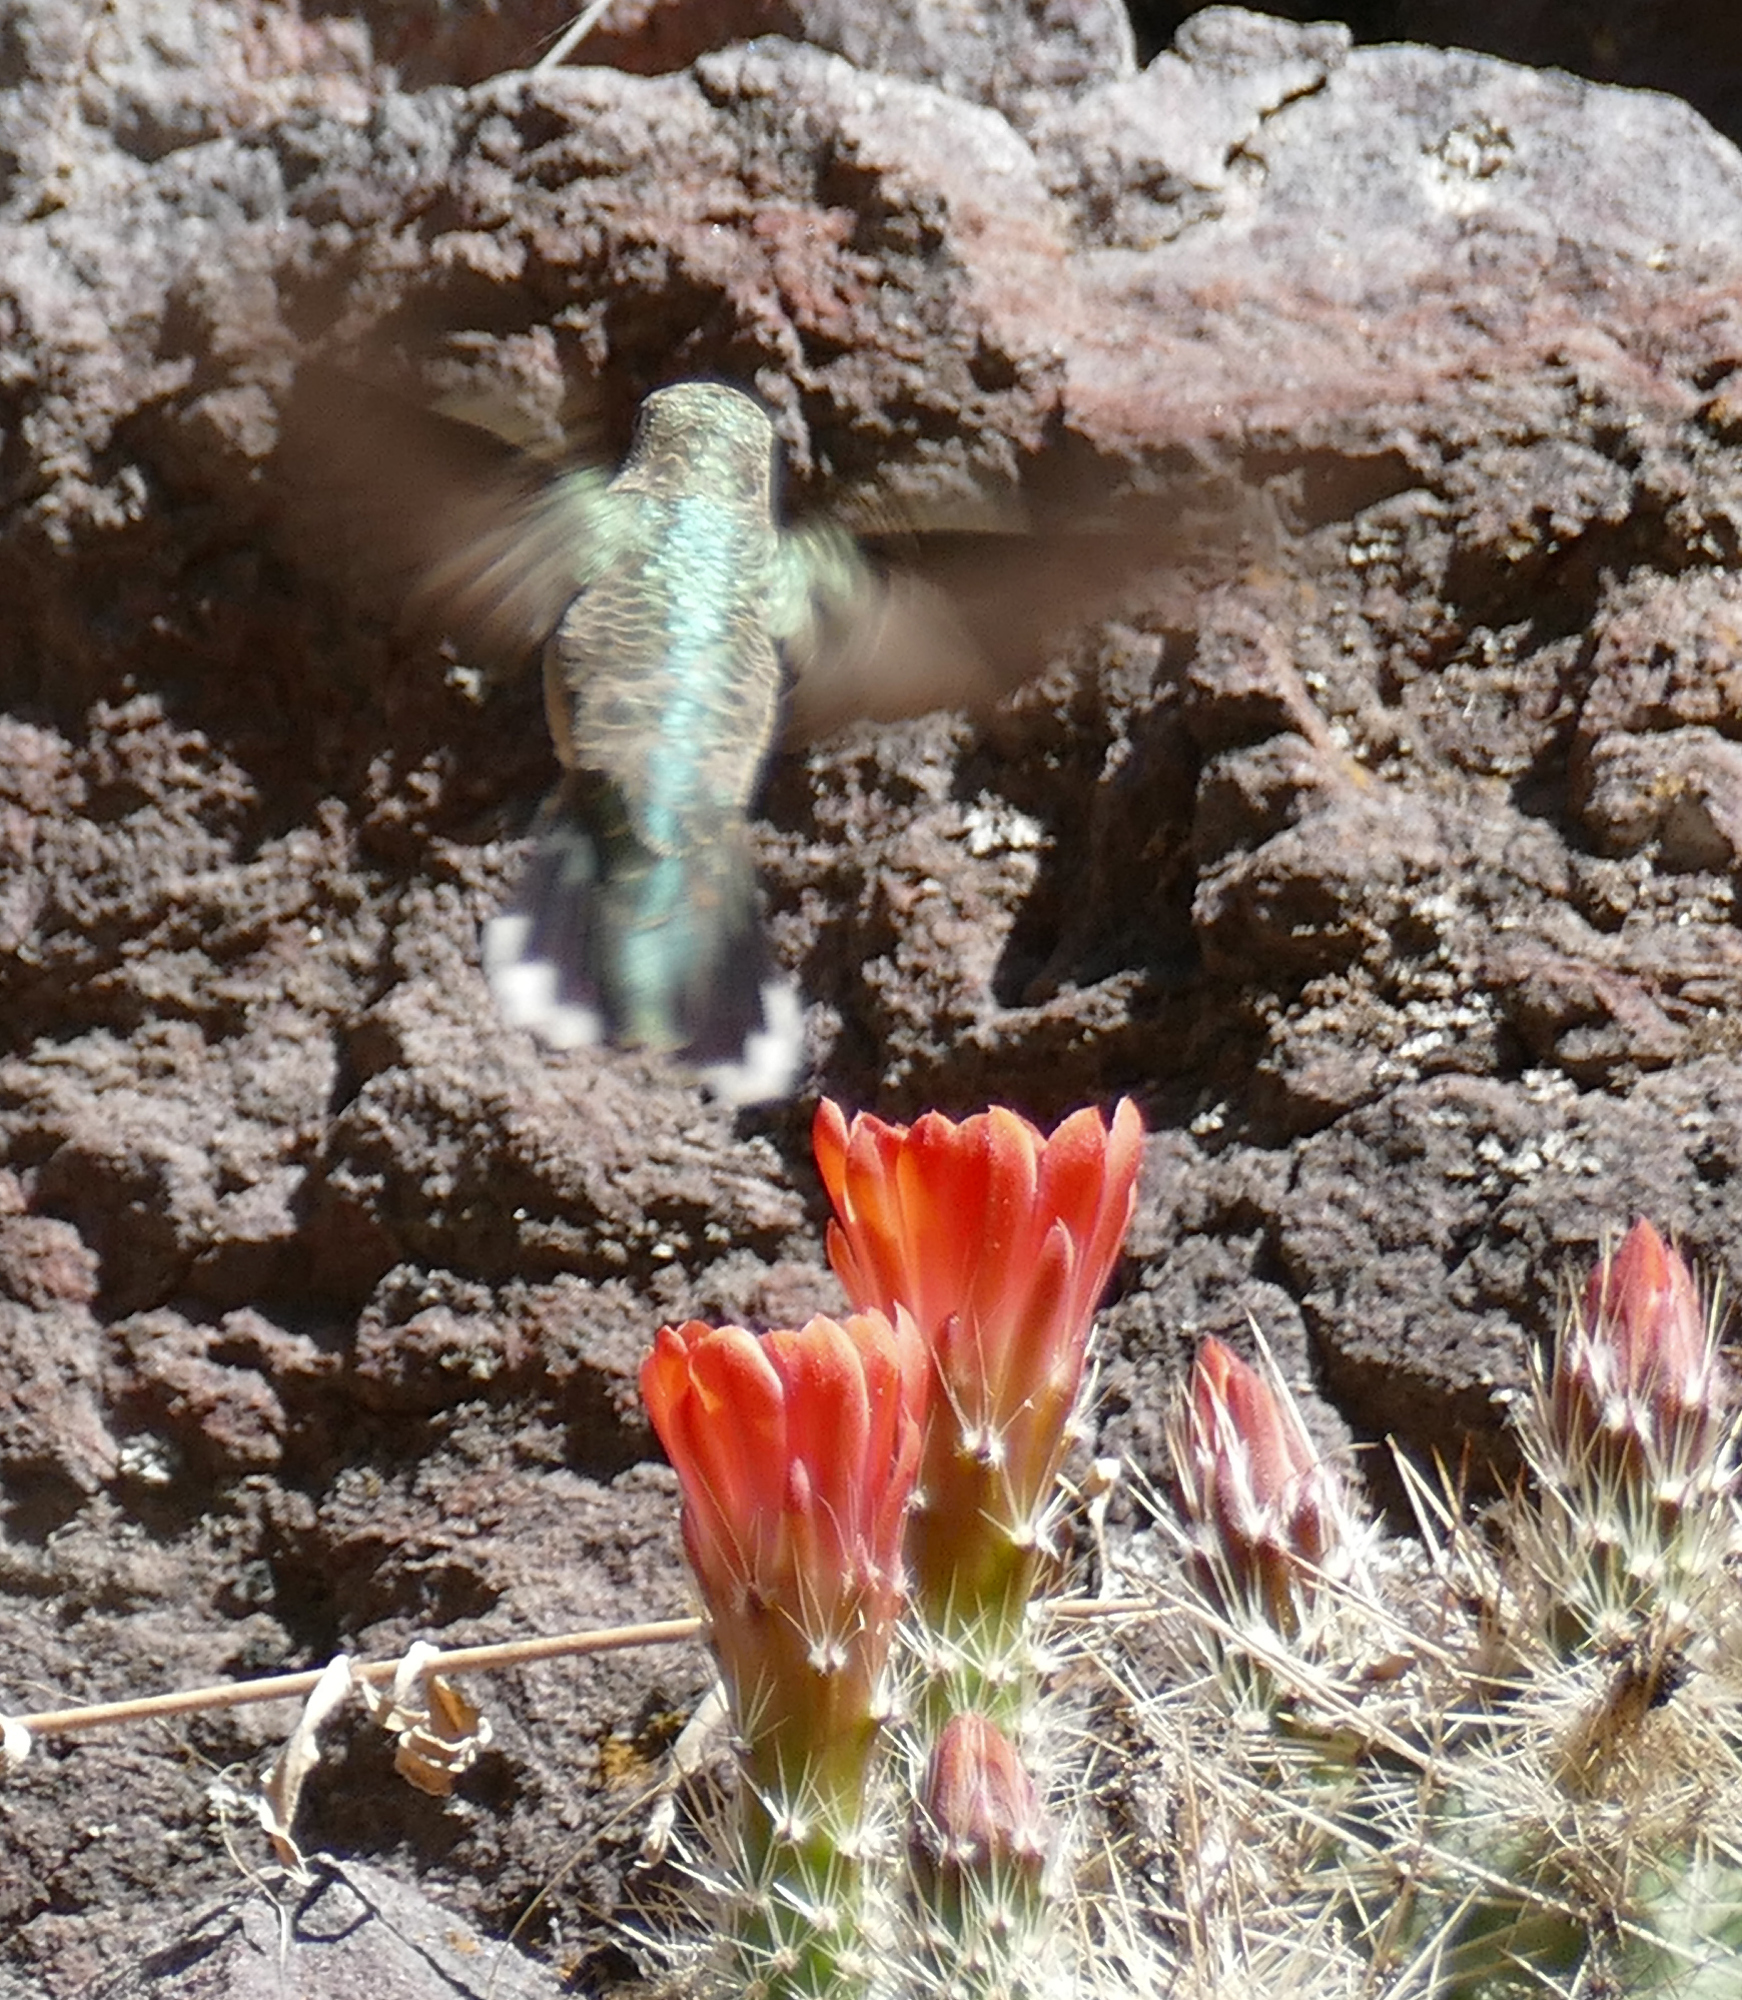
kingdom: Animalia
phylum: Chordata
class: Aves
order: Apodiformes
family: Trochilidae
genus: Archilochus
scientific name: Archilochus alexandri
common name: Black-chinned hummingbird
